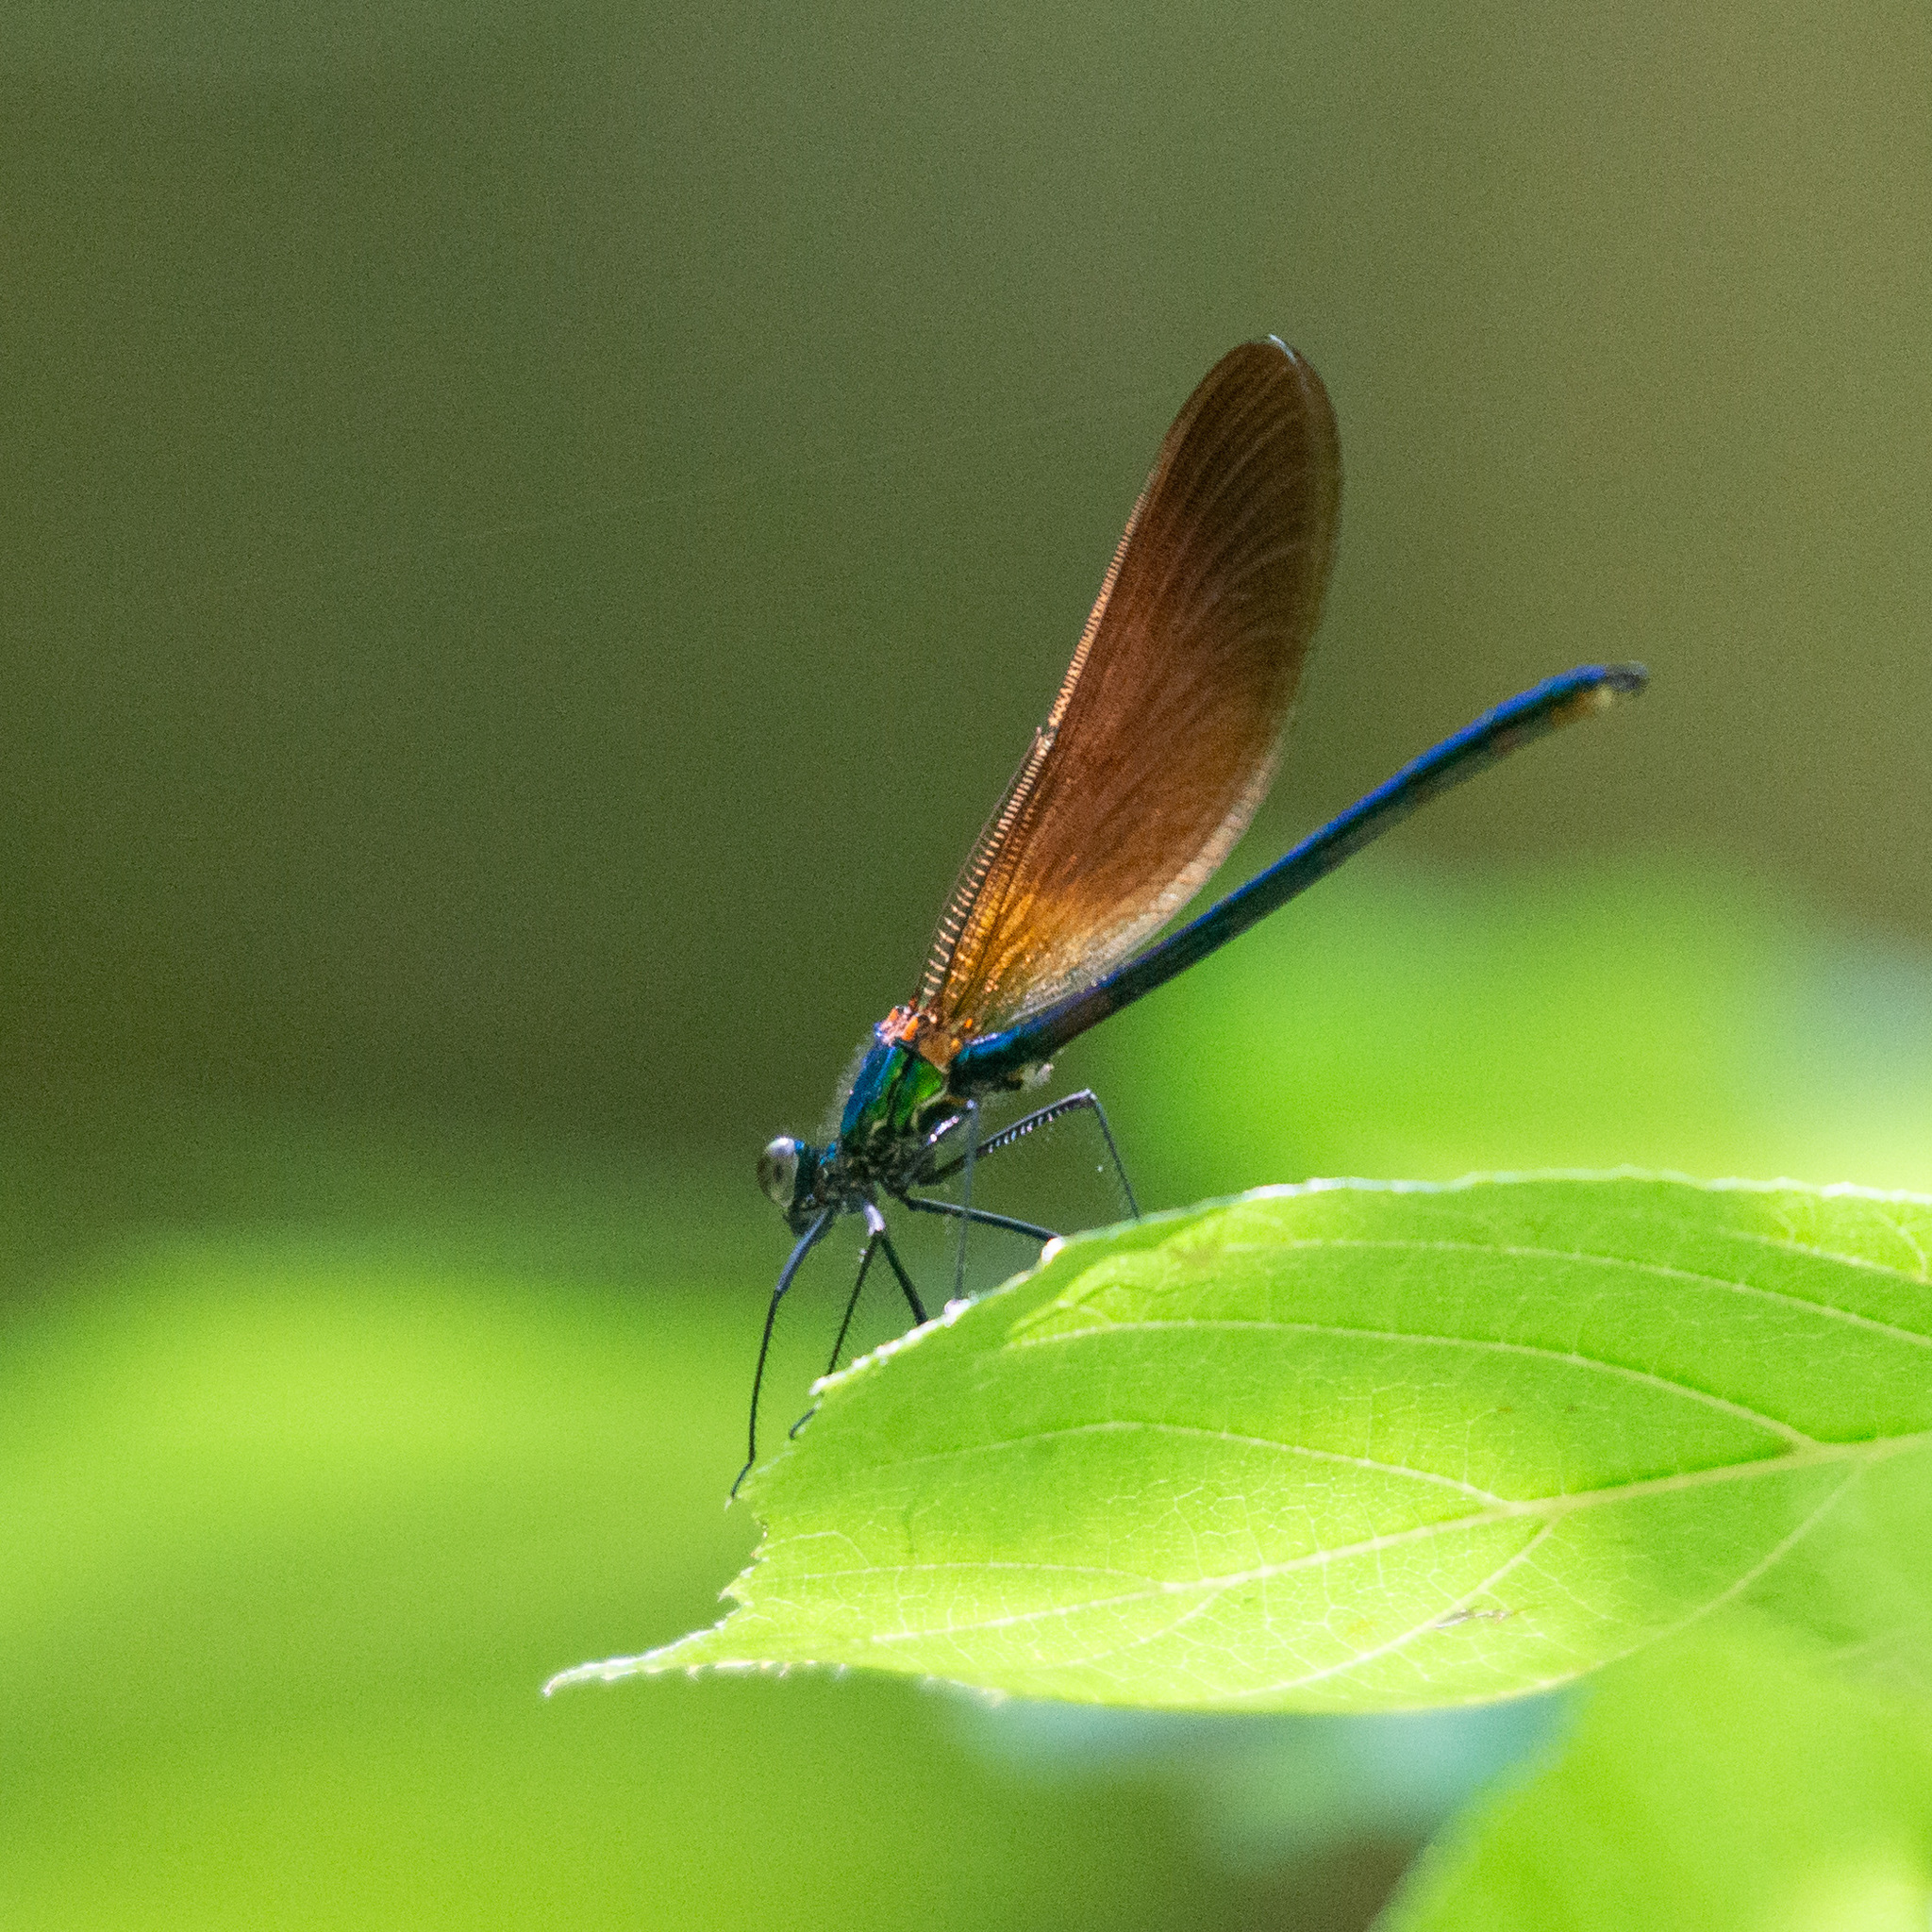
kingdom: Animalia
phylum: Arthropoda
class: Insecta
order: Odonata
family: Calopterygidae
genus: Calopteryx
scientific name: Calopteryx virgo
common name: Beautiful demoiselle
